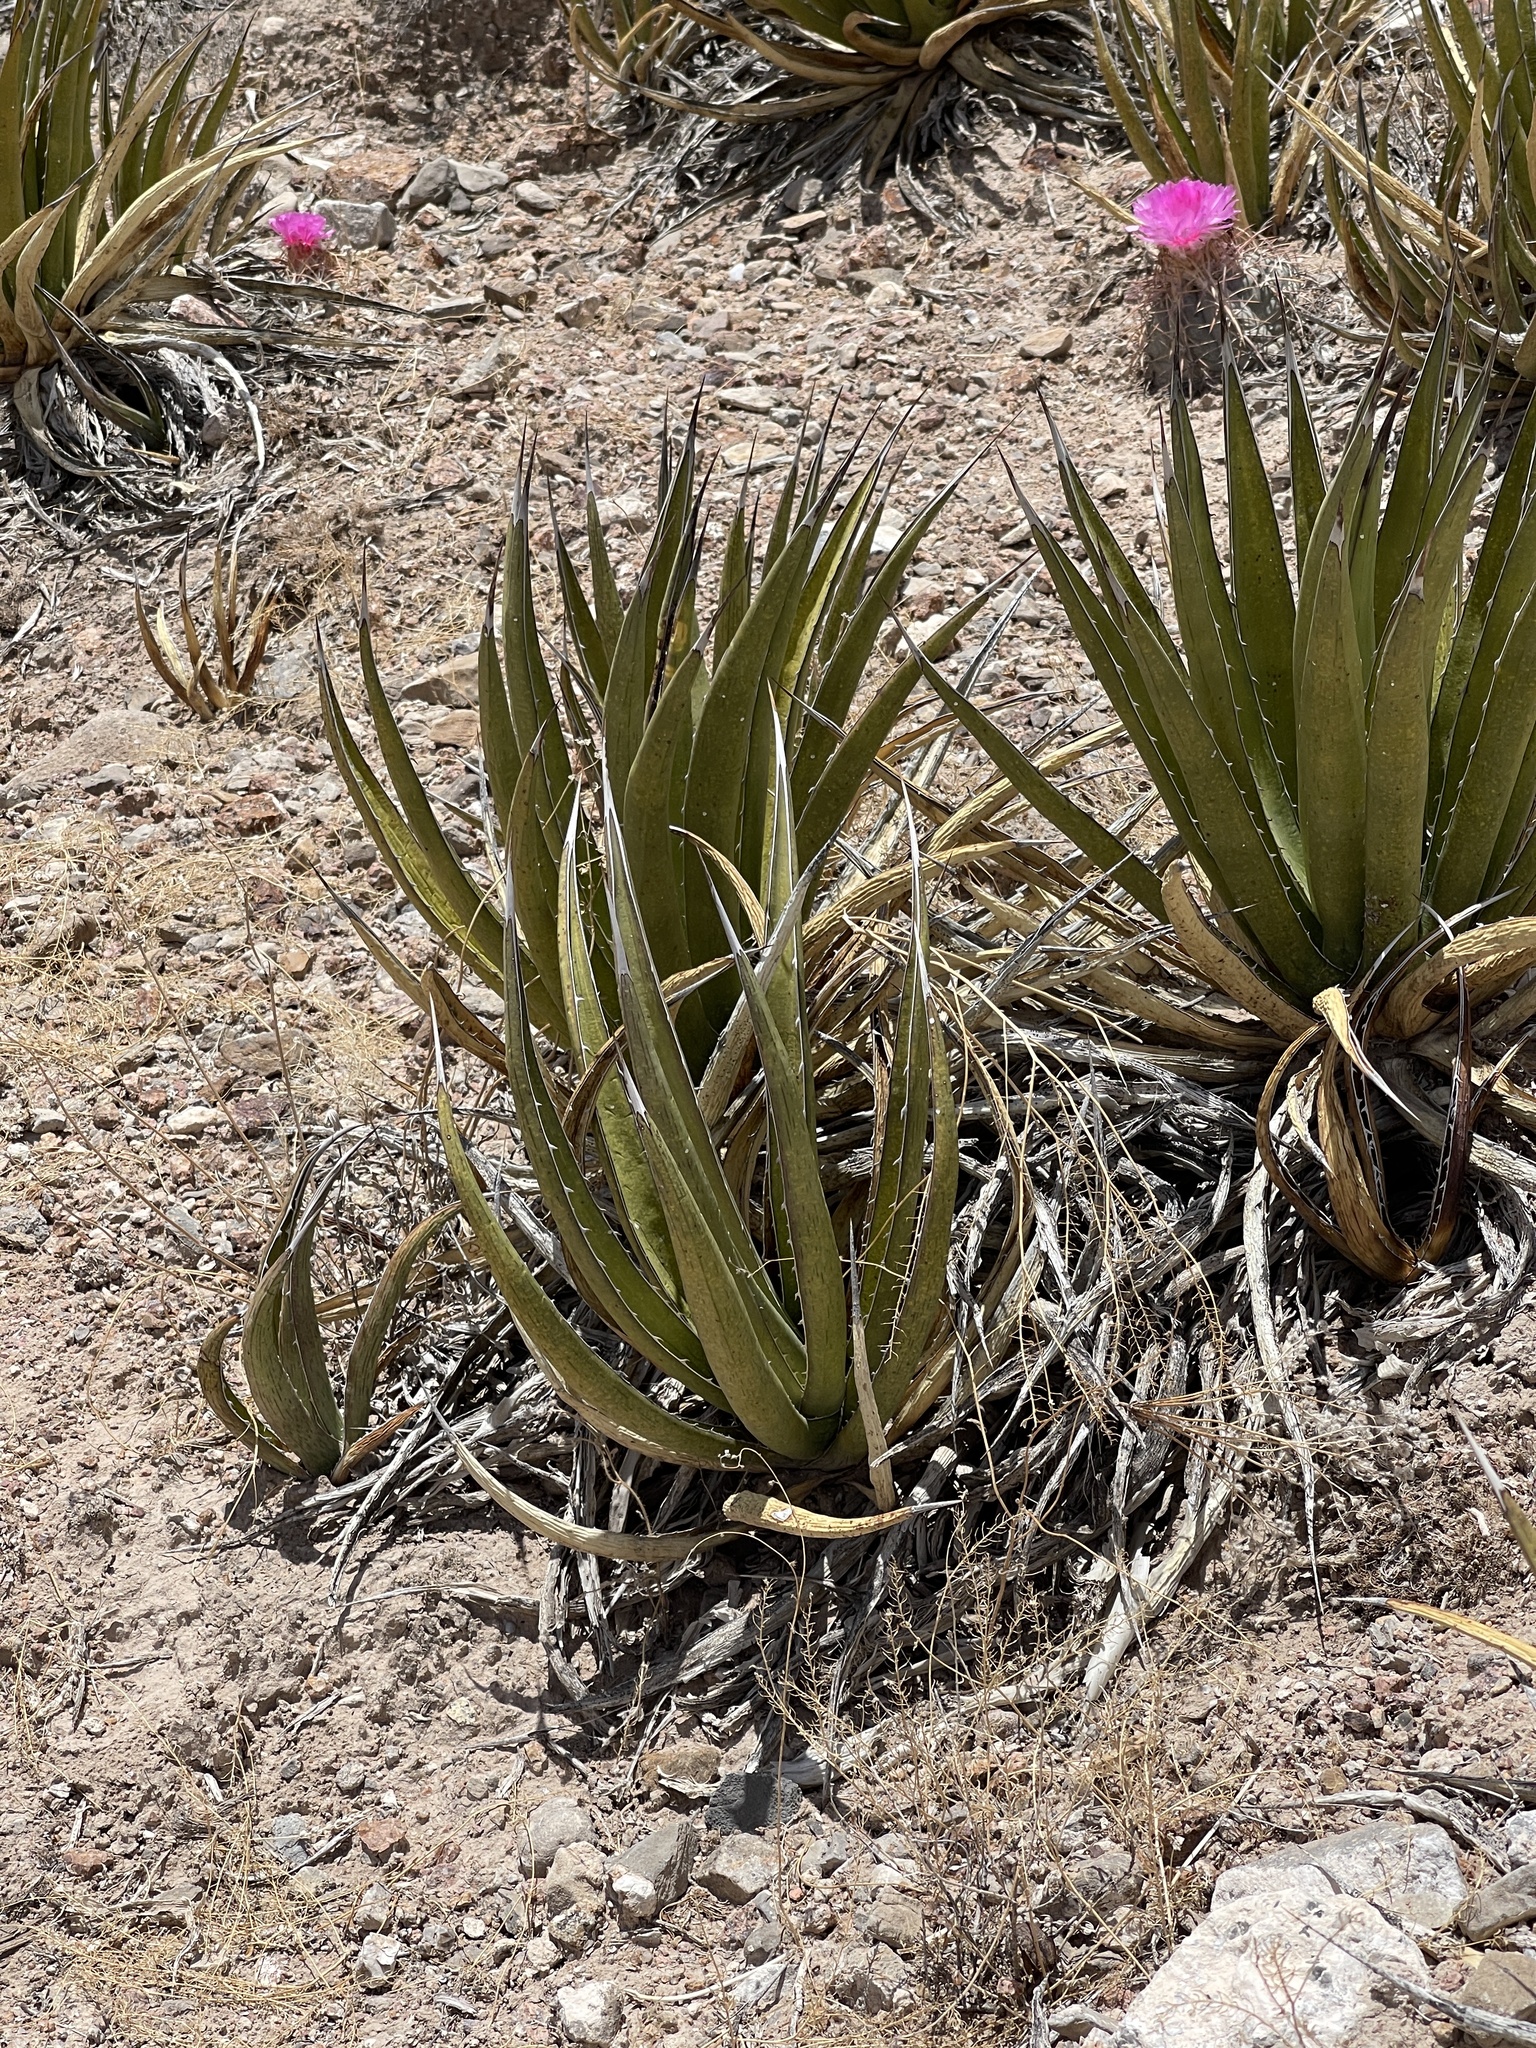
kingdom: Plantae
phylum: Tracheophyta
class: Liliopsida
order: Asparagales
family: Asparagaceae
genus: Agave
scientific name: Agave lechuguilla
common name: Lecheguilla agave
